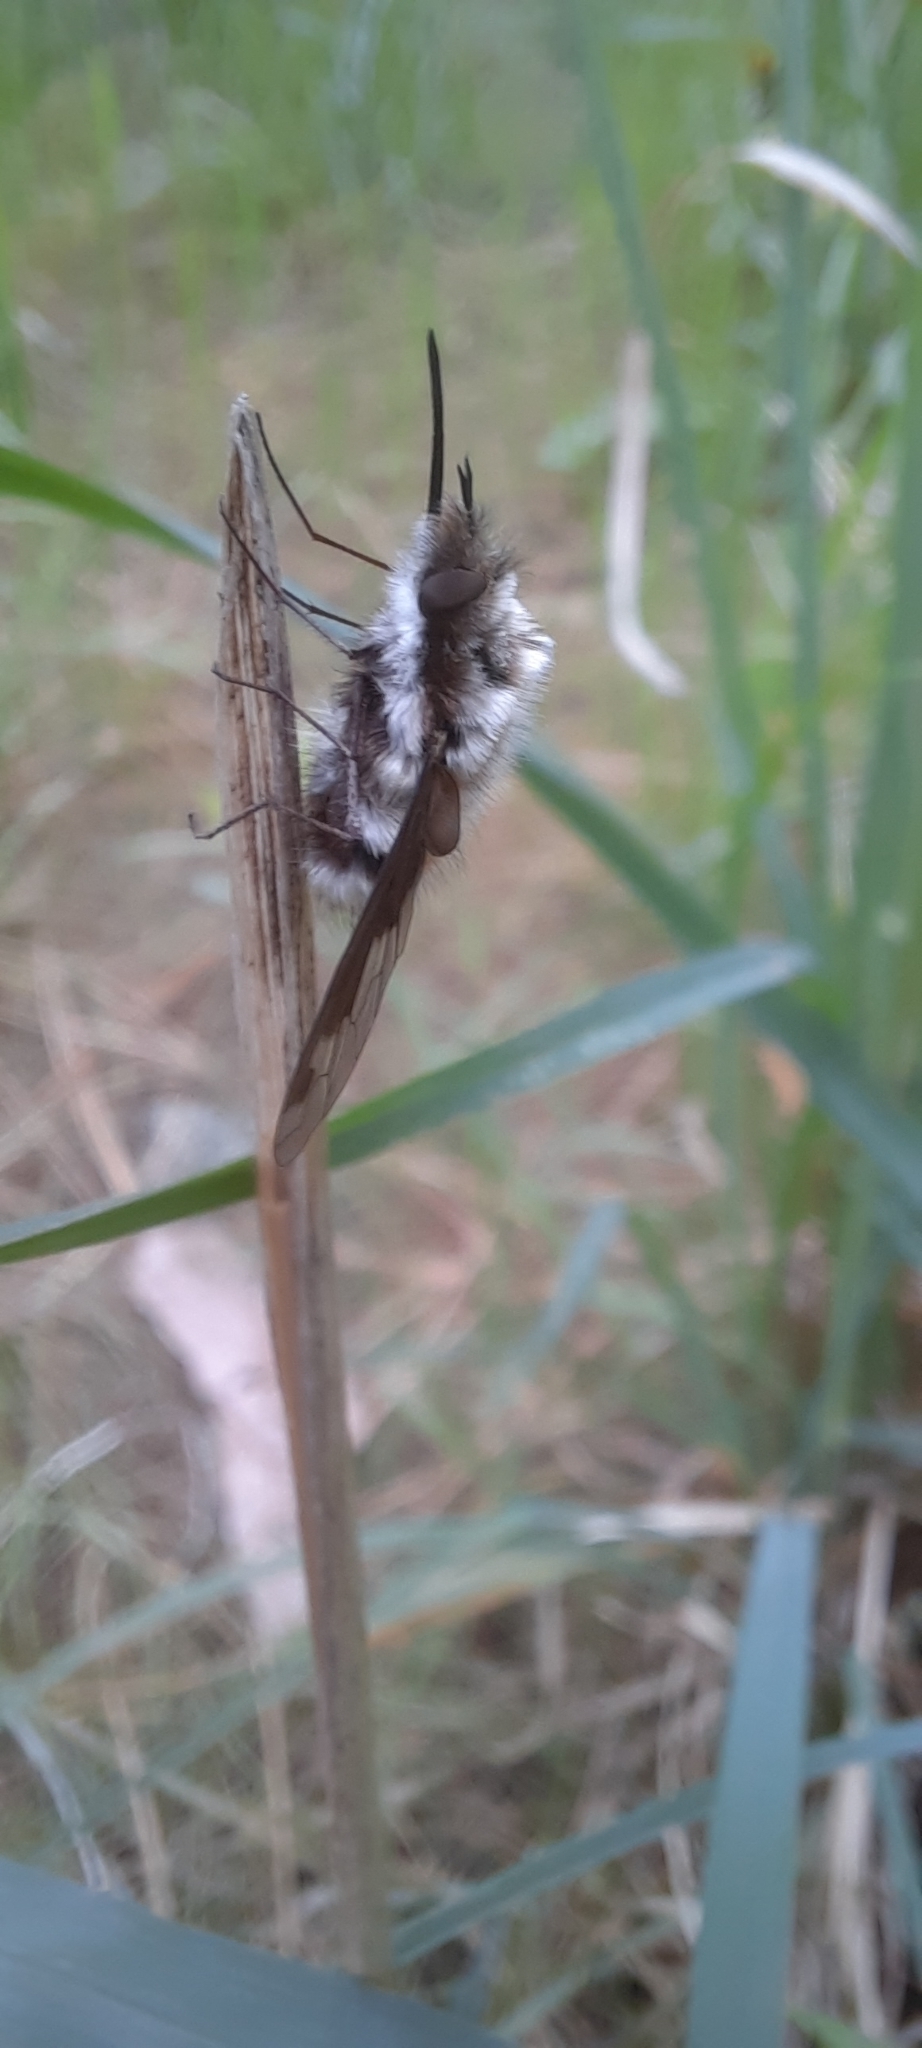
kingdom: Animalia
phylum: Arthropoda
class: Insecta
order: Diptera
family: Bombyliidae
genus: Bombylius
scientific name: Bombylius major
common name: Bee fly
